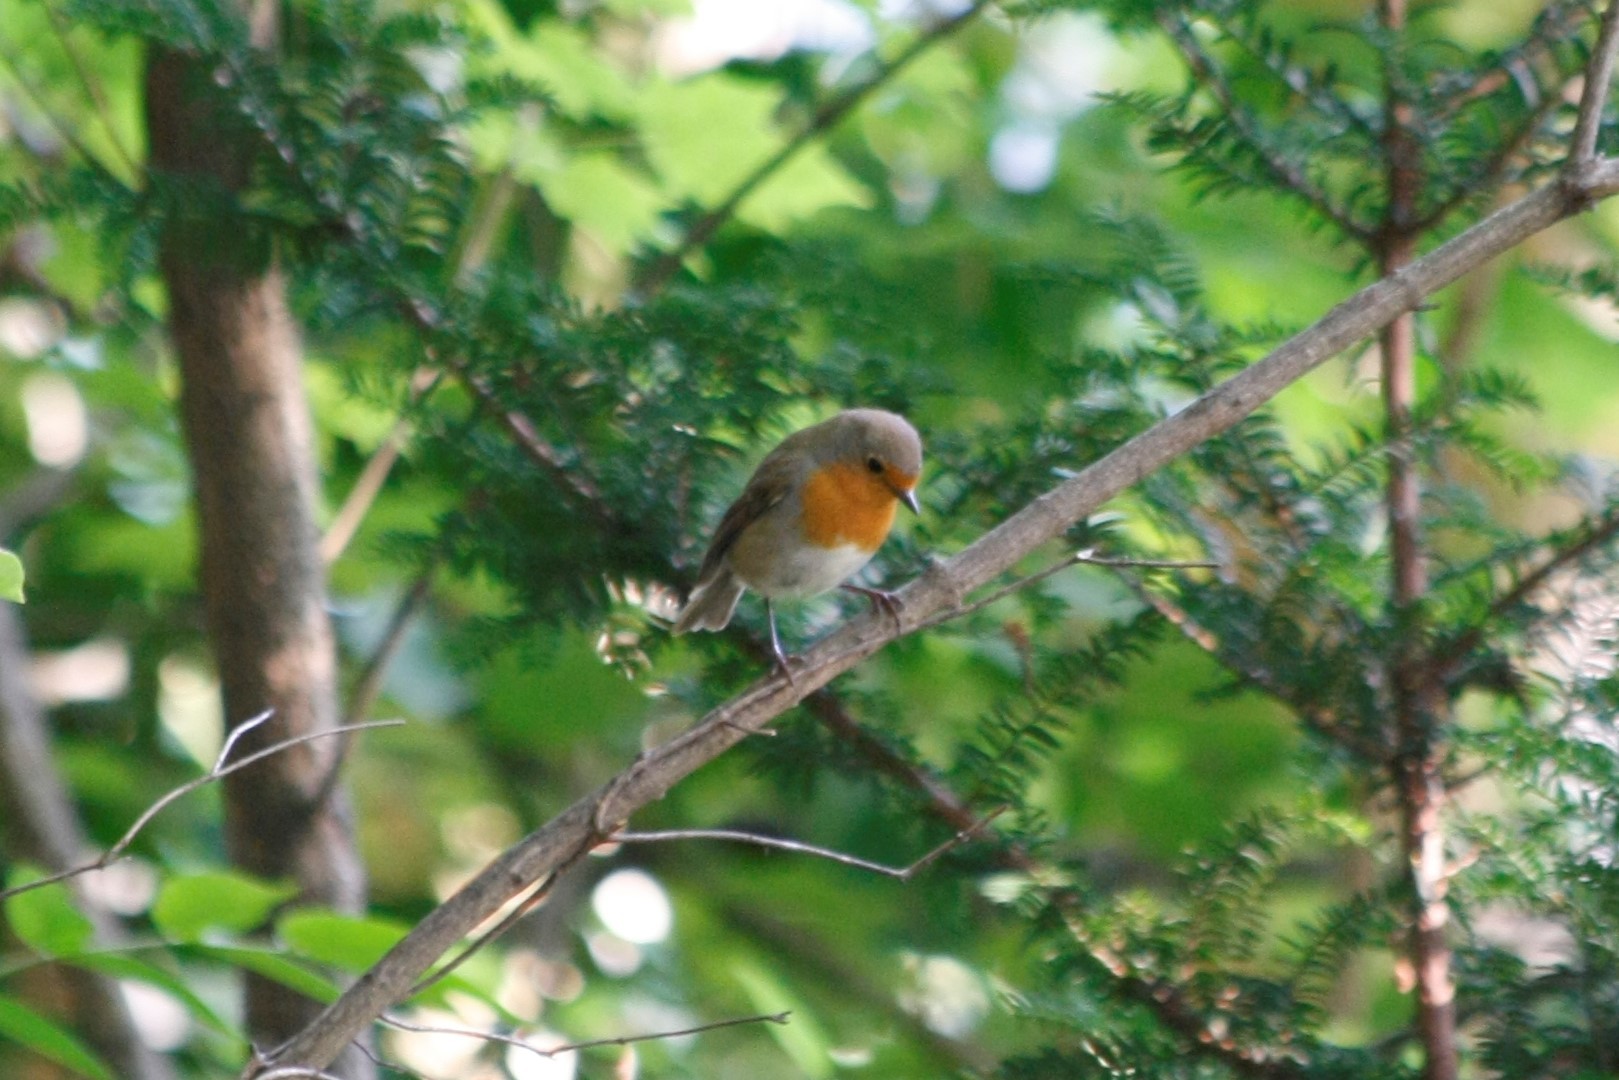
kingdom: Animalia
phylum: Chordata
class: Aves
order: Passeriformes
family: Muscicapidae
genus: Erithacus
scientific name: Erithacus rubecula
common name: European robin
